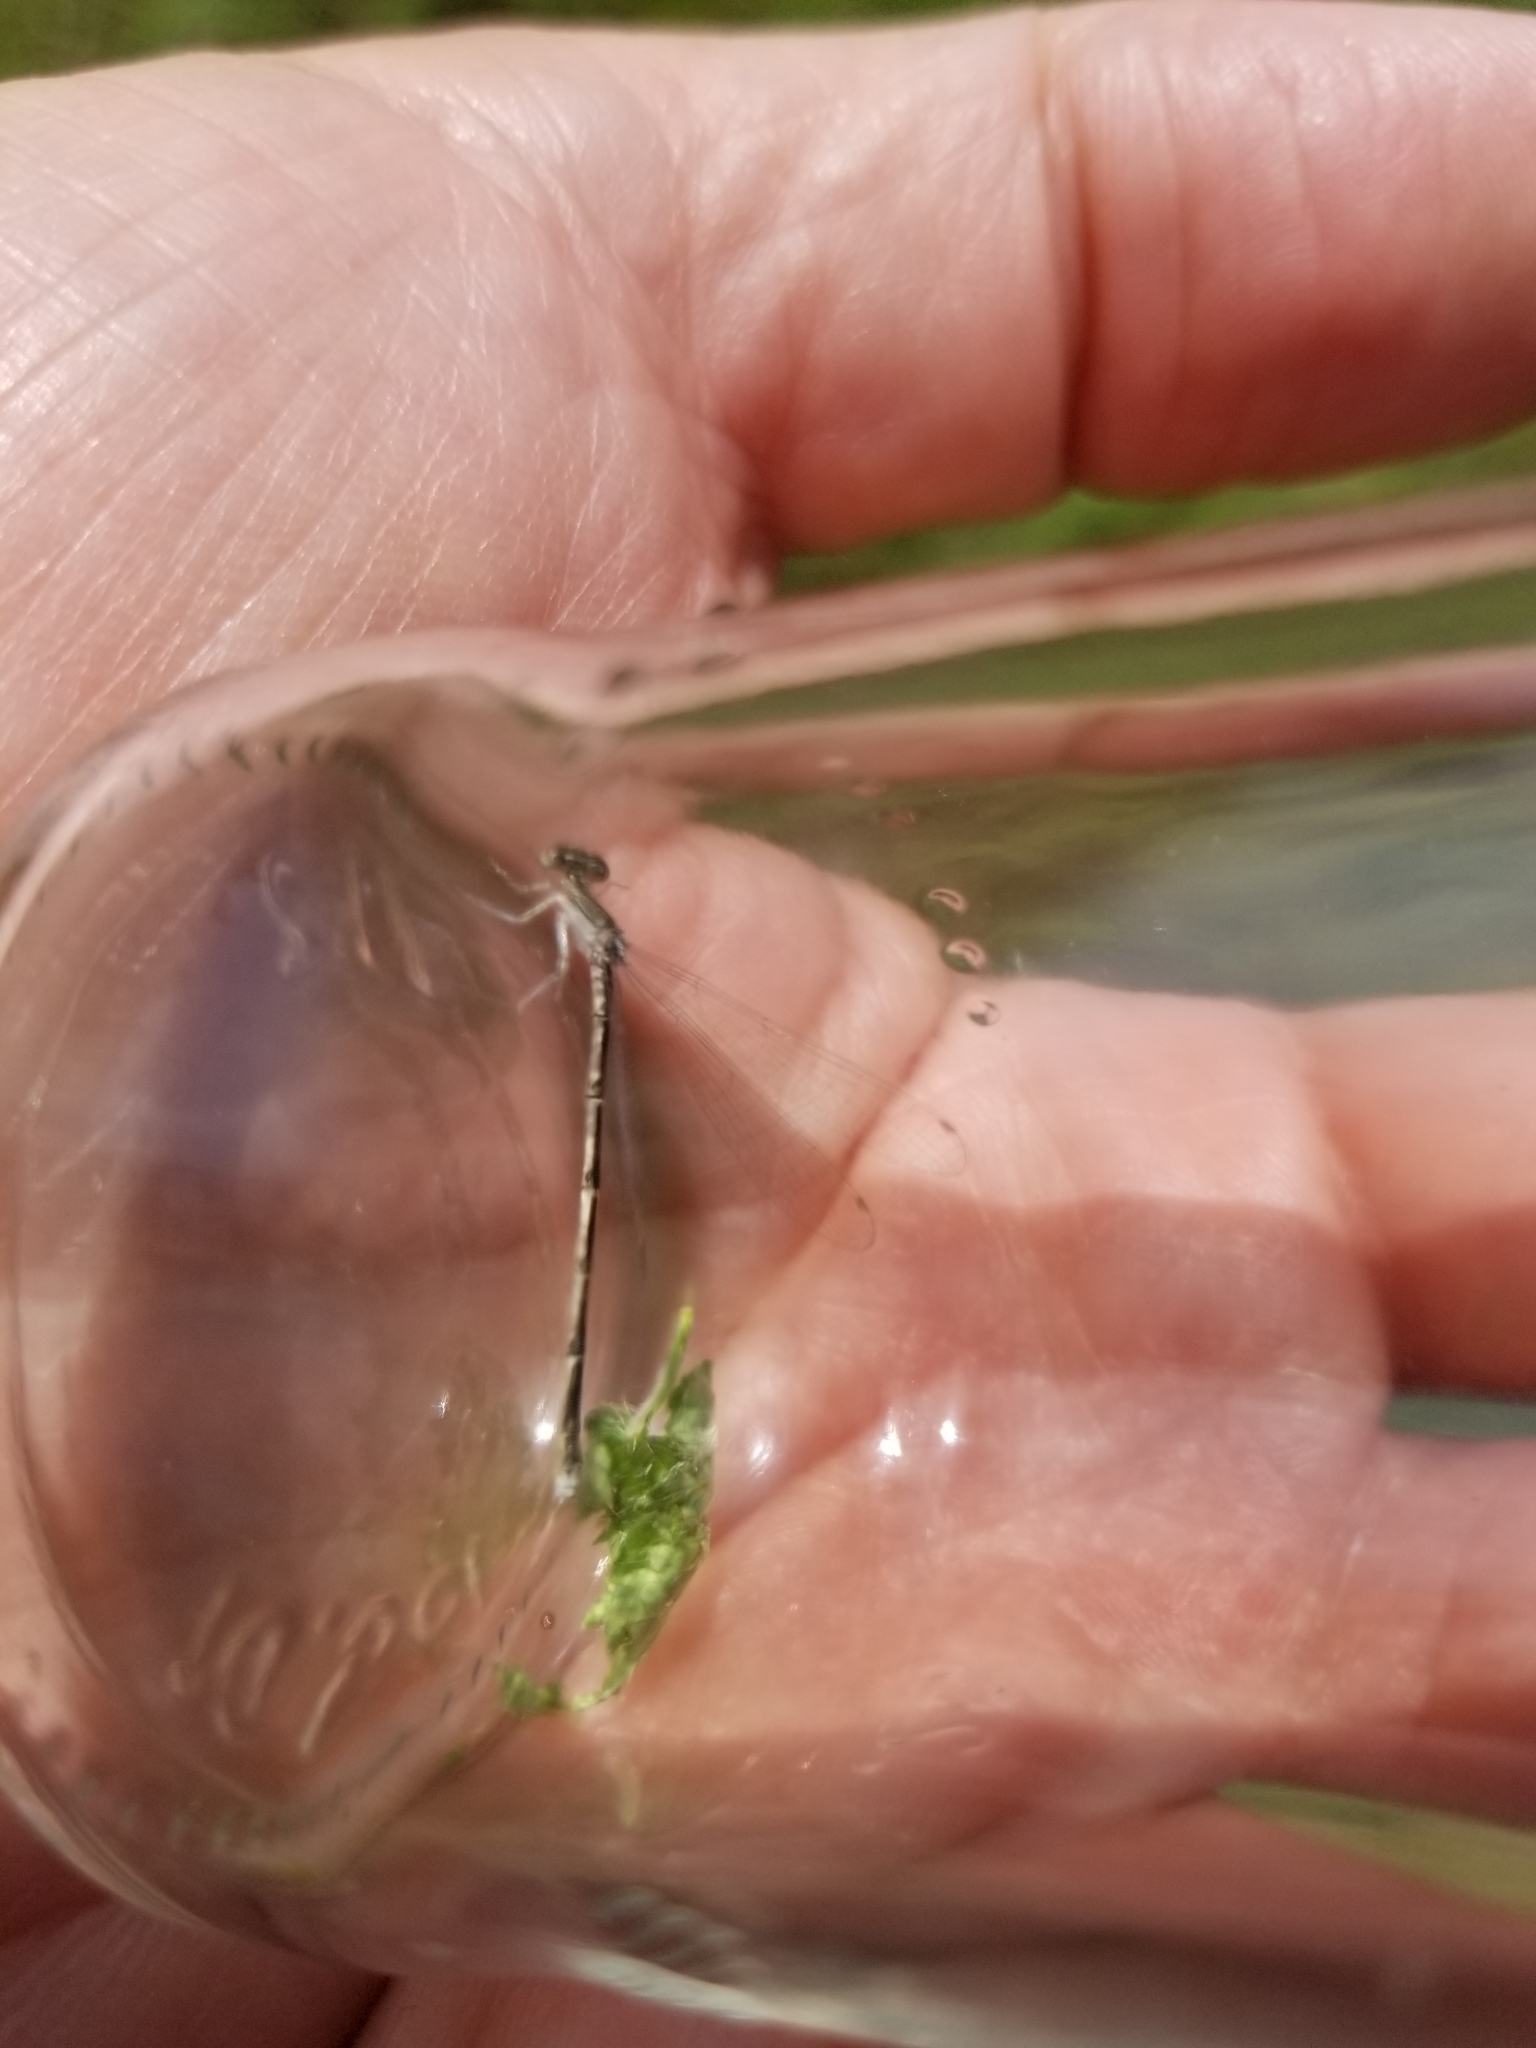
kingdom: Animalia
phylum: Arthropoda
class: Insecta
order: Odonata
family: Coenagrionidae
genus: Enallagma
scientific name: Enallagma basidens
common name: Double-striped bluet
